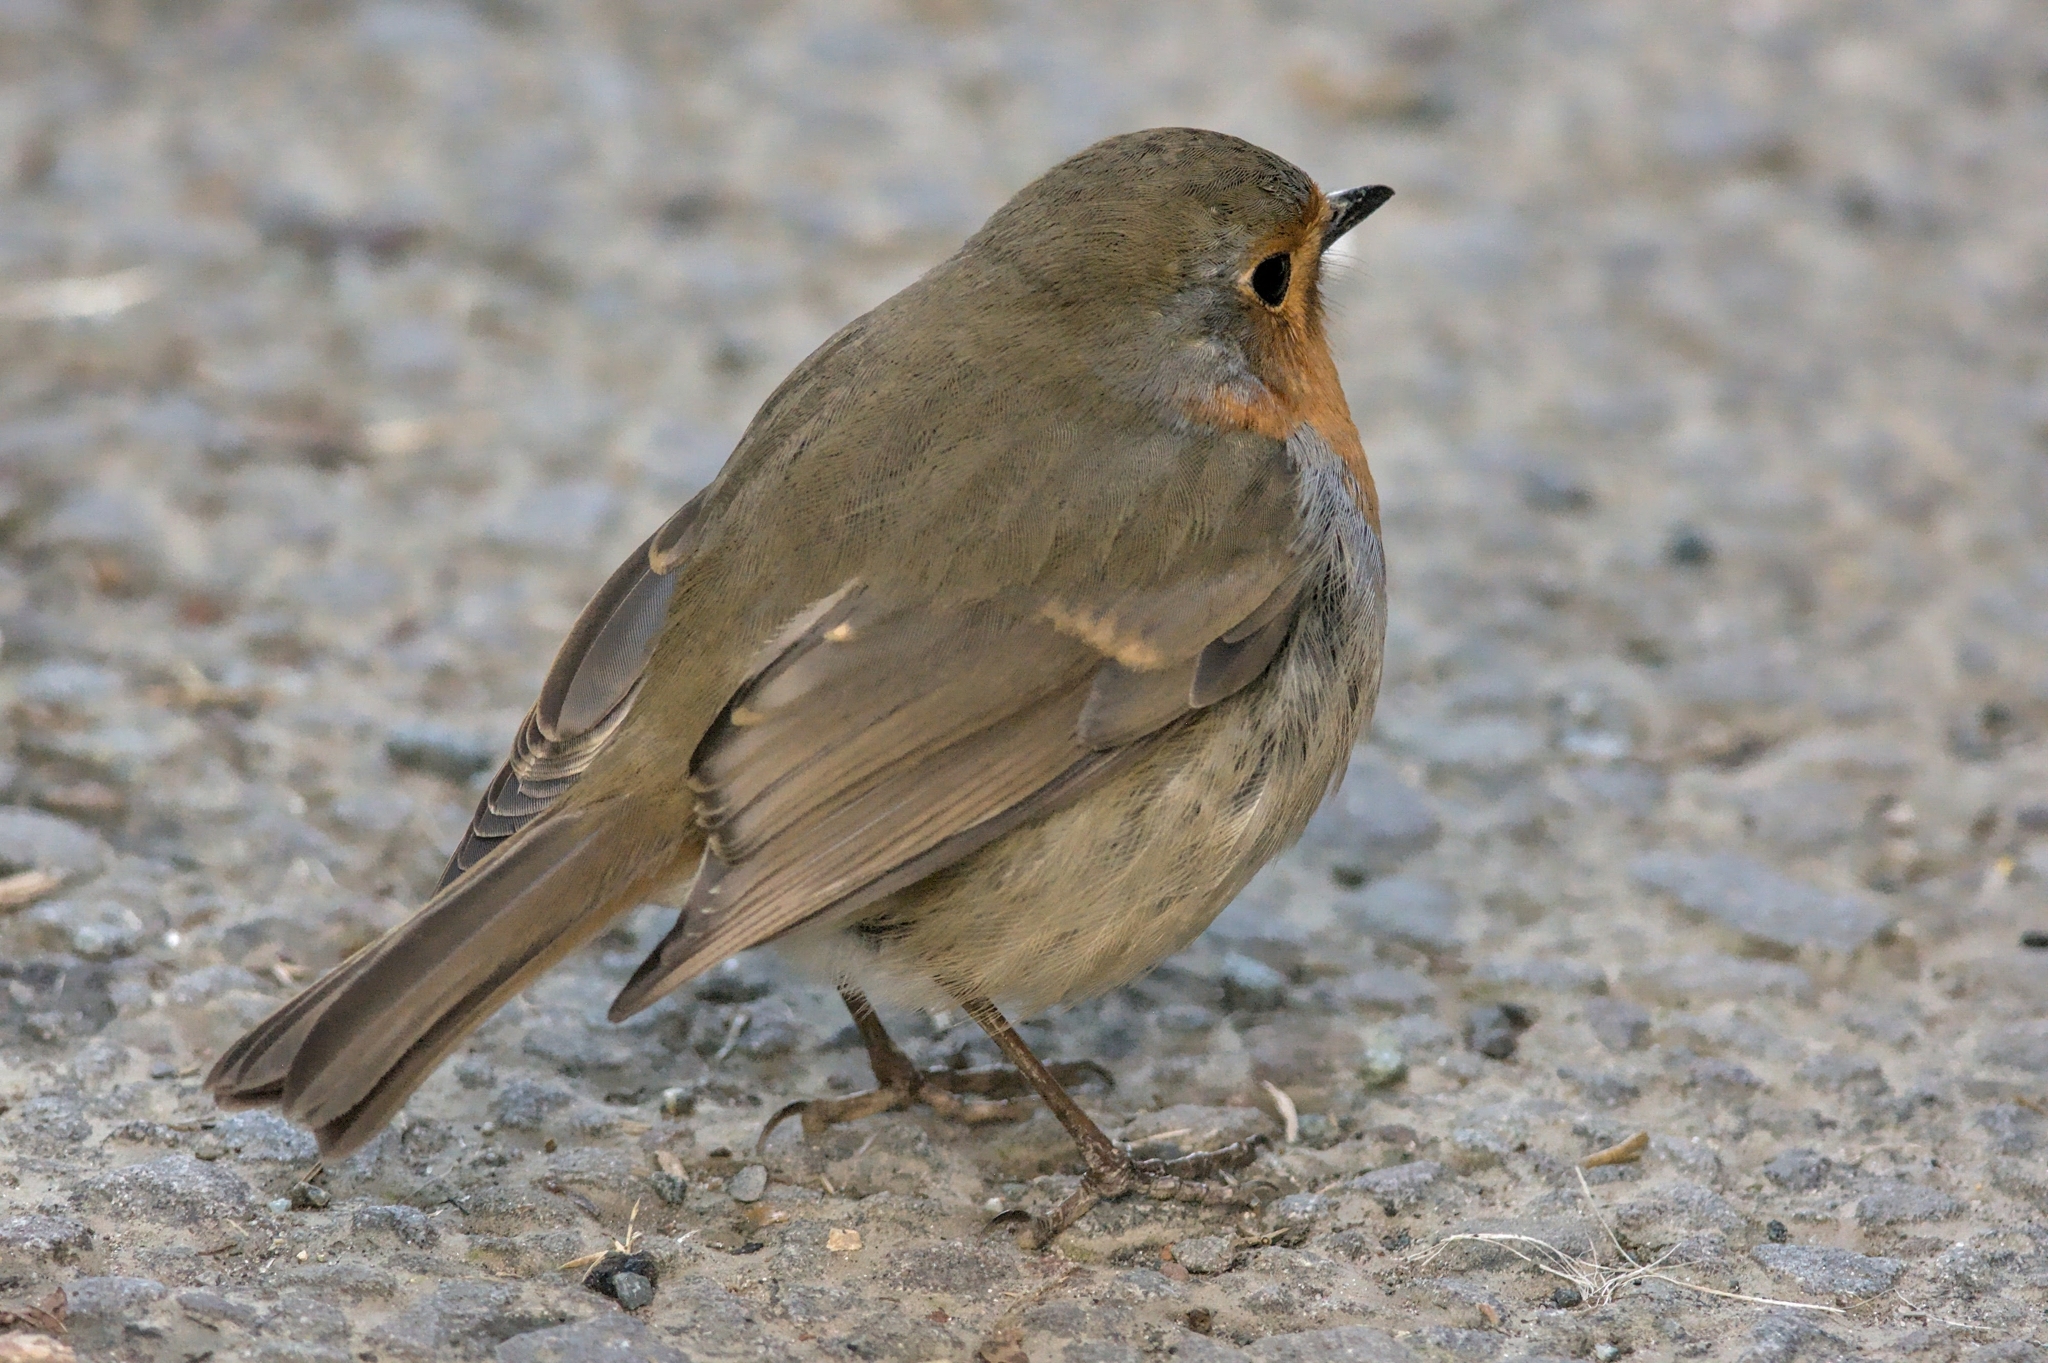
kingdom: Animalia
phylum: Chordata
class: Aves
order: Passeriformes
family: Muscicapidae
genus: Erithacus
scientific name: Erithacus rubecula
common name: European robin
